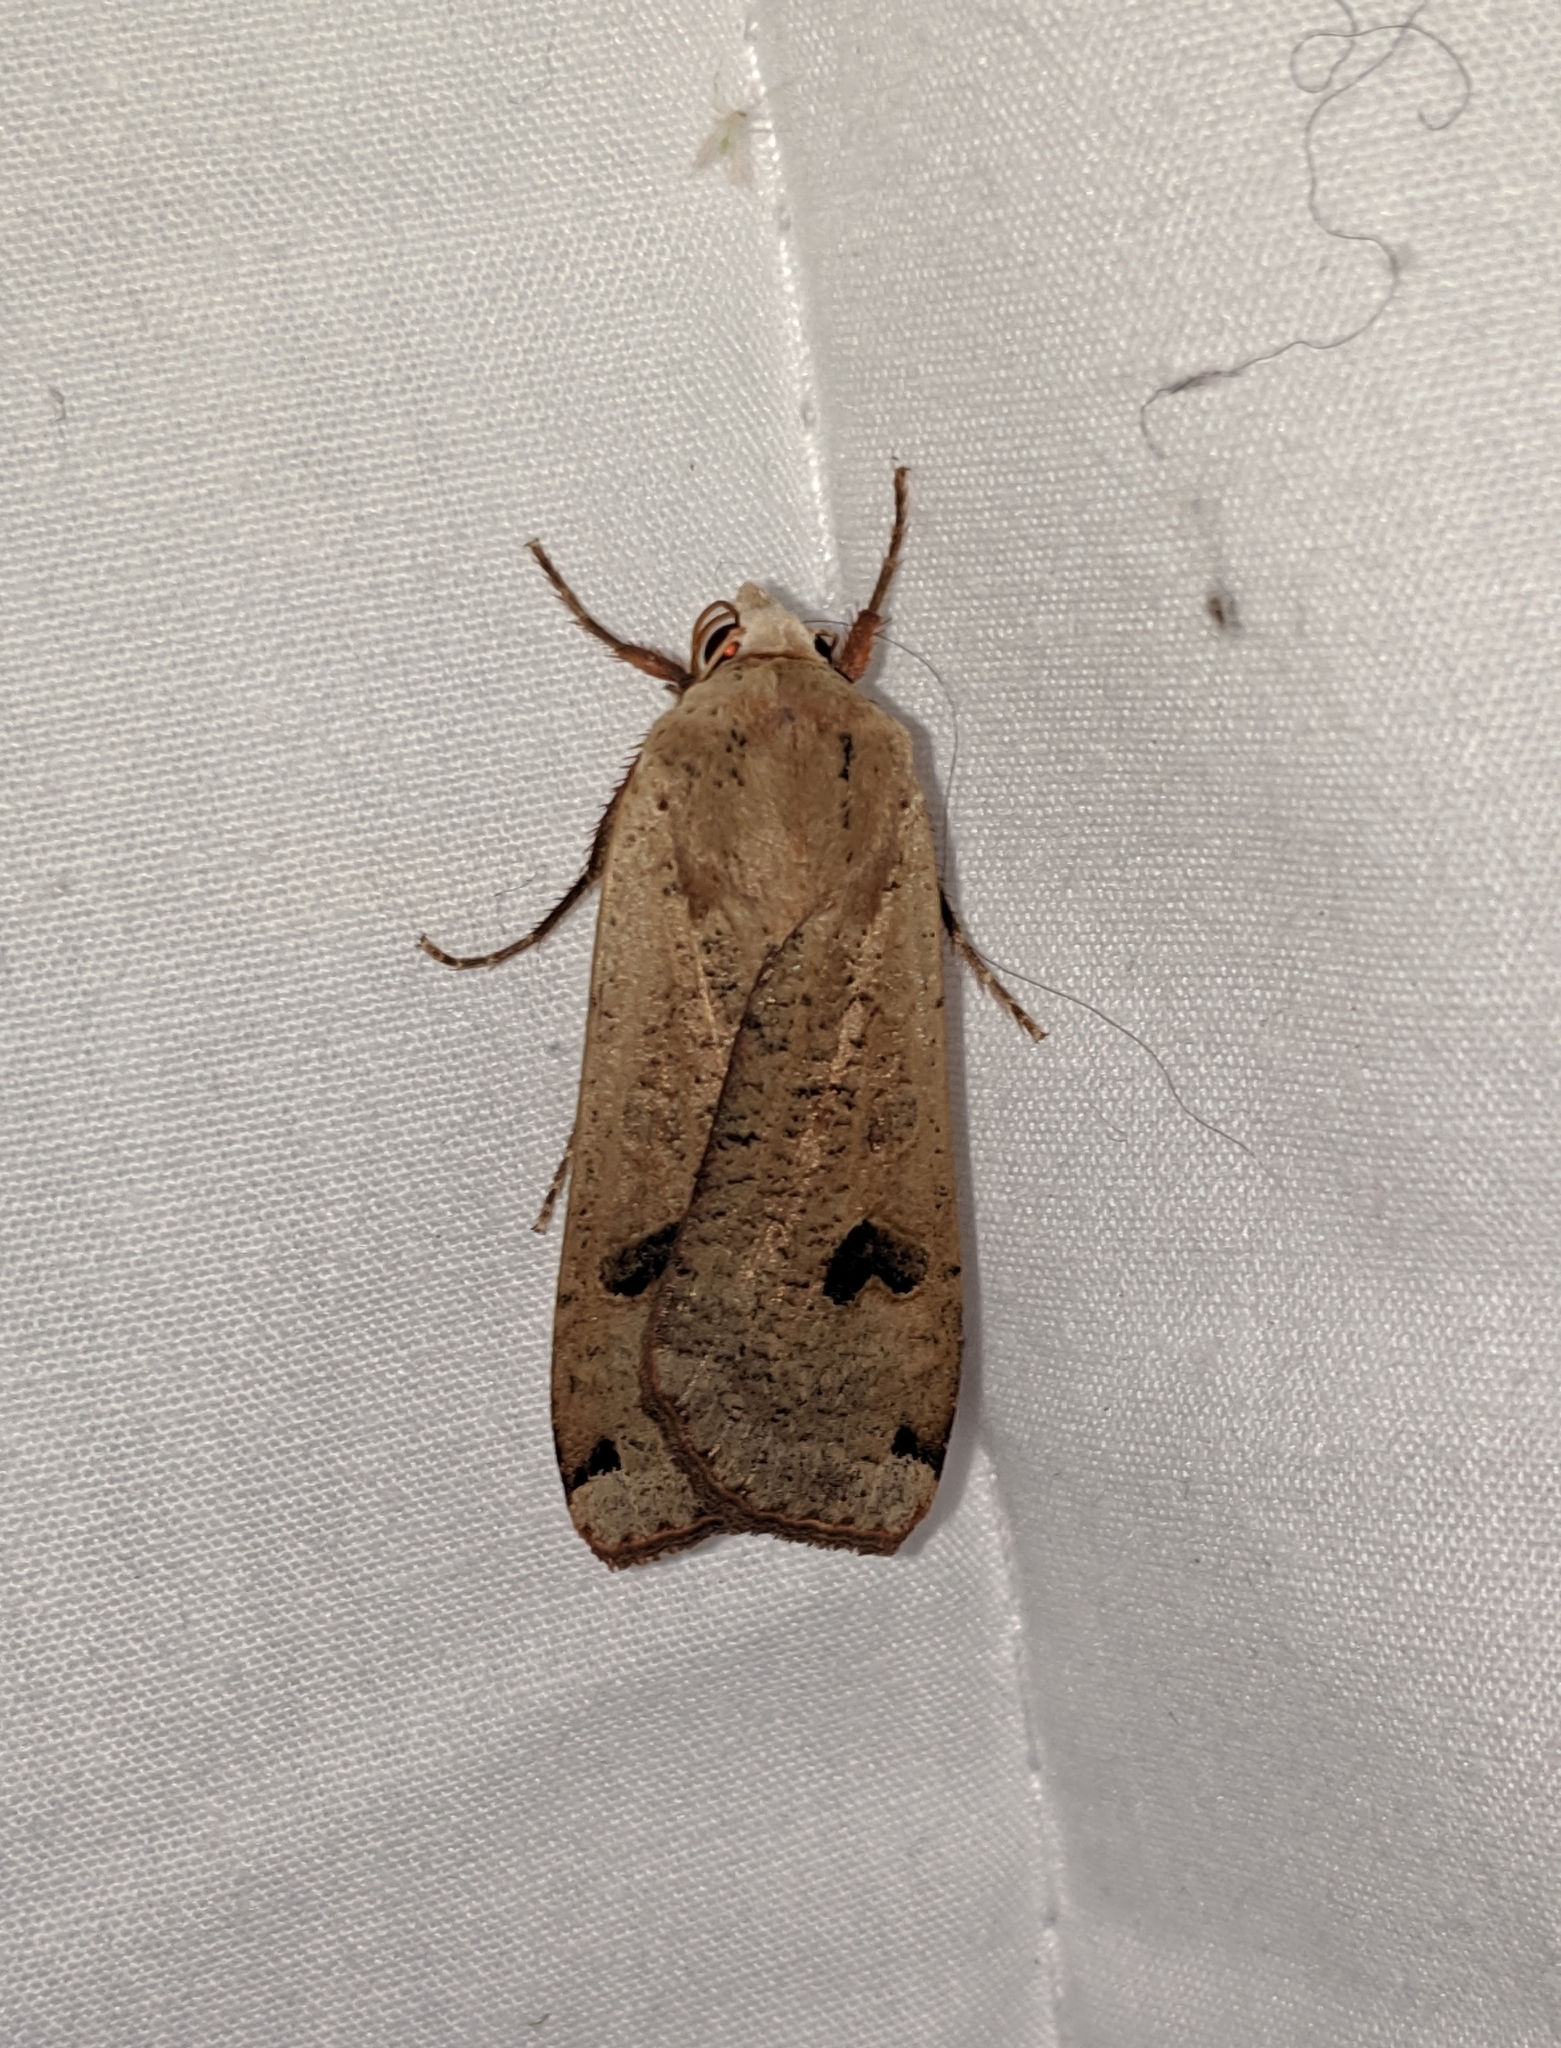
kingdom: Animalia
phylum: Arthropoda
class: Insecta
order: Lepidoptera
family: Noctuidae
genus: Noctua
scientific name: Noctua pronuba
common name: Large yellow underwing
